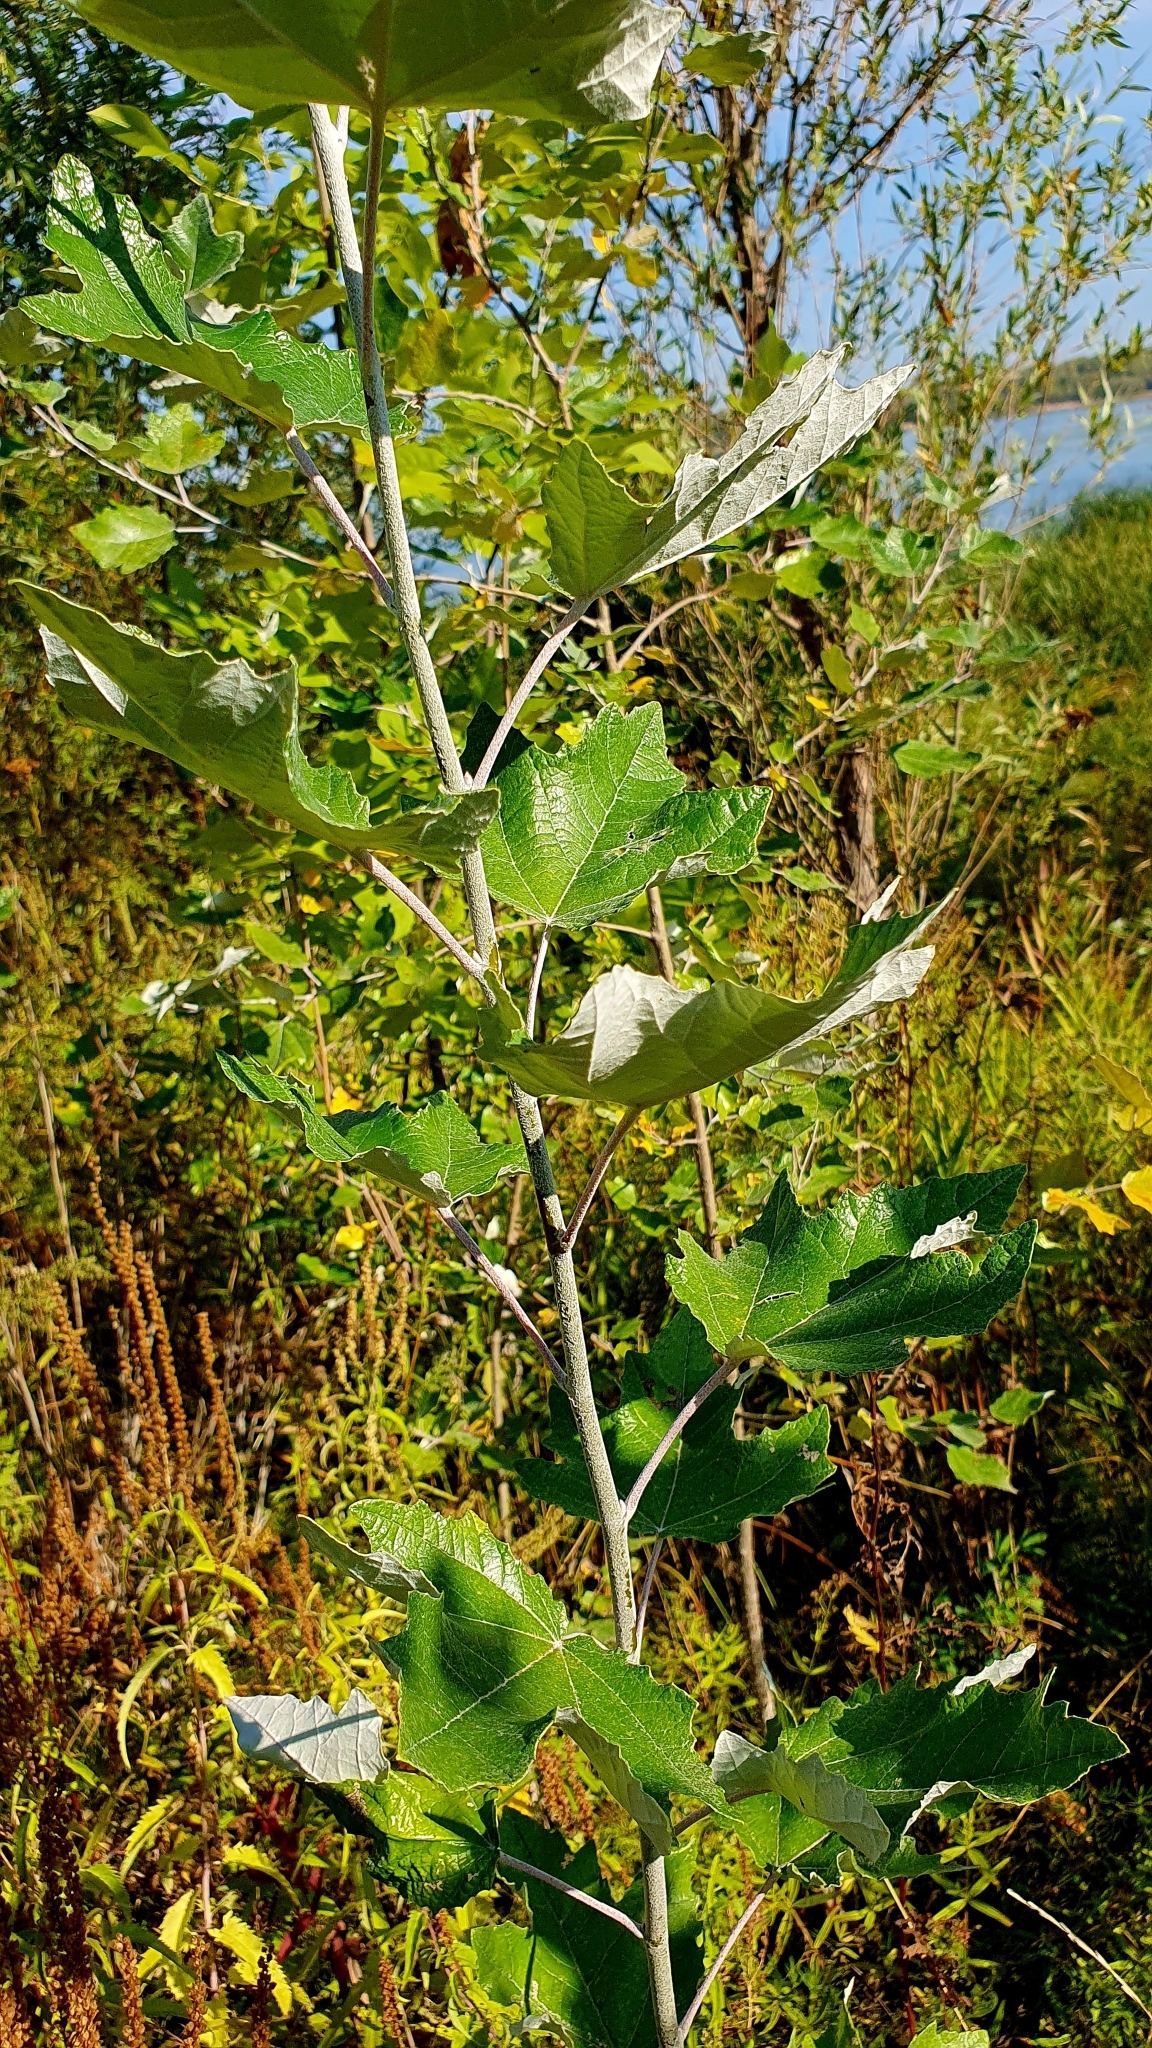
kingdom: Plantae
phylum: Tracheophyta
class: Magnoliopsida
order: Malpighiales
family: Salicaceae
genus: Populus
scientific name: Populus alba
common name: White poplar
